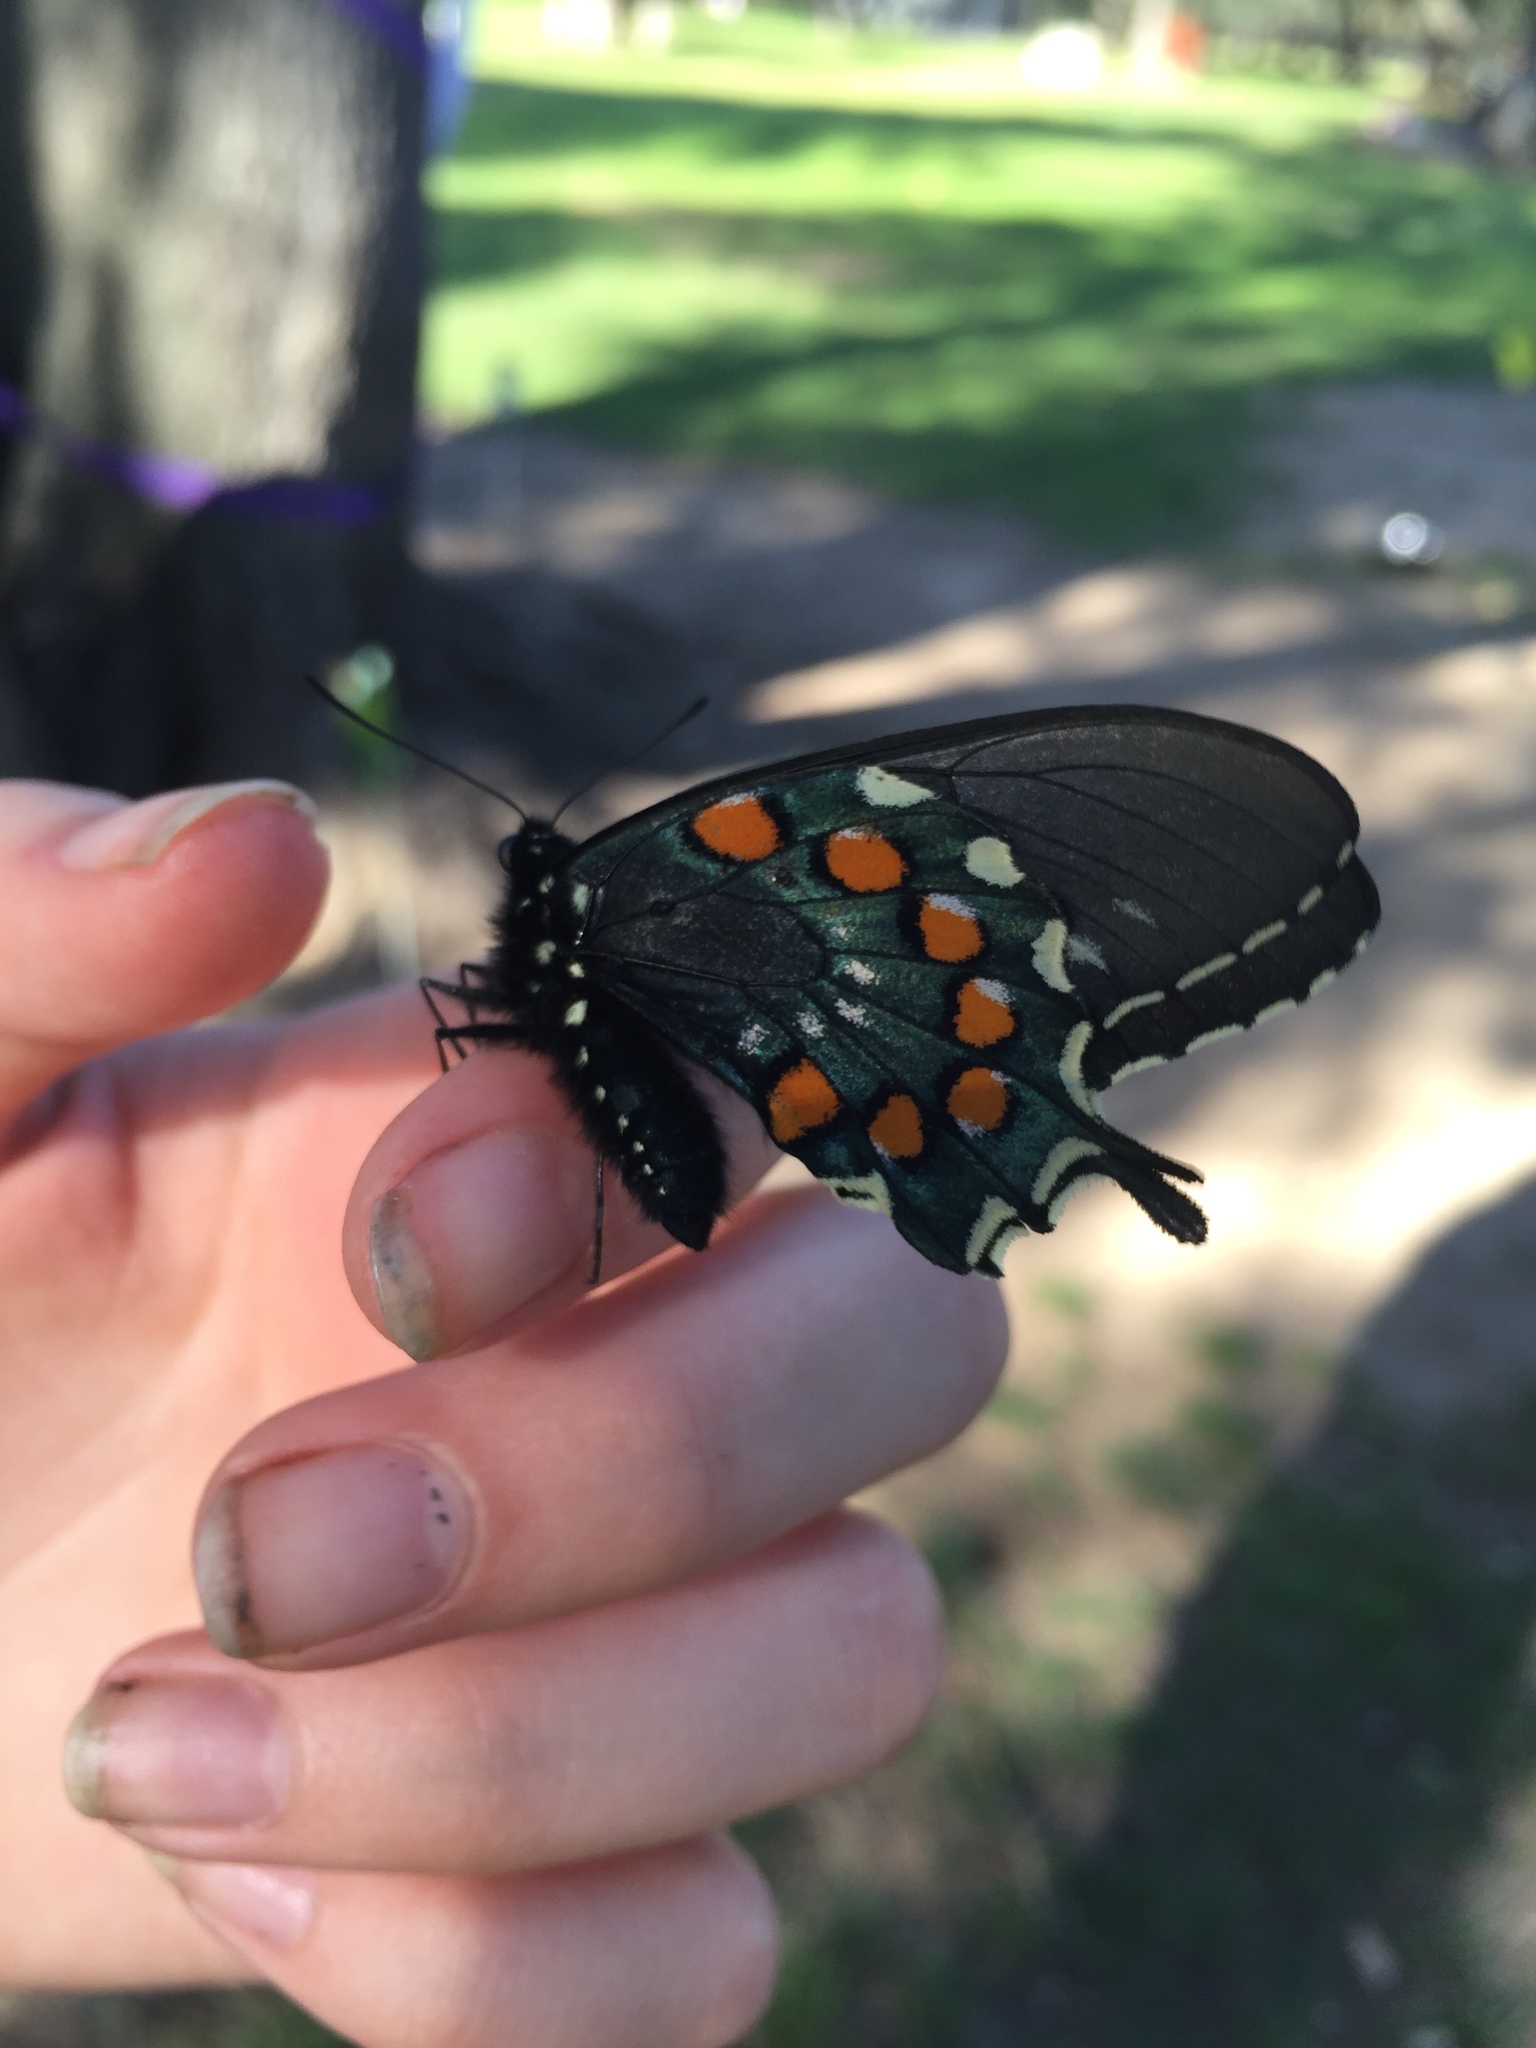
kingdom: Animalia
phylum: Arthropoda
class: Insecta
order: Lepidoptera
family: Papilionidae
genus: Battus
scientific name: Battus philenor
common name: Pipevine swallowtail
